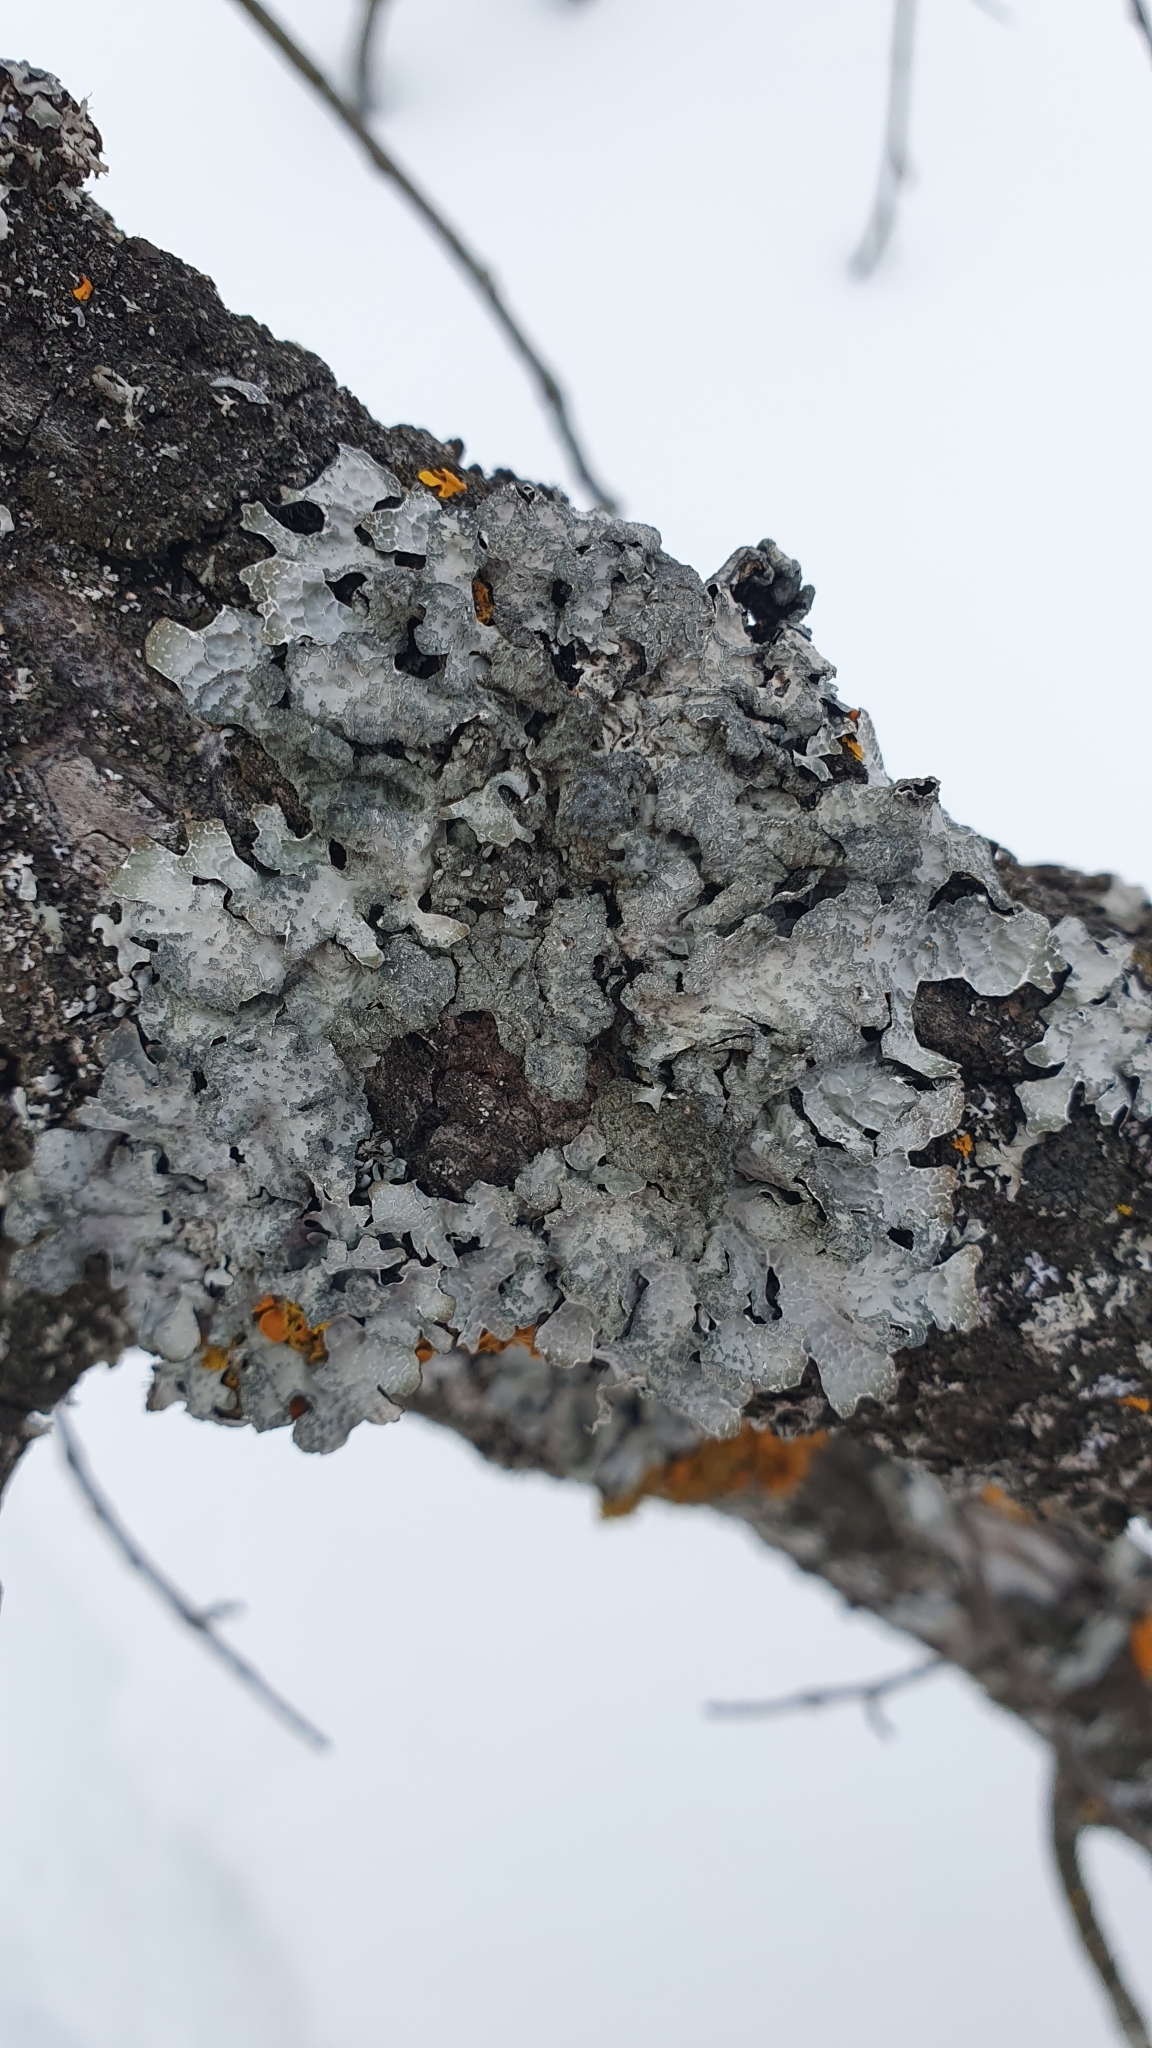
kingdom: Fungi
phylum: Ascomycota
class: Lecanoromycetes
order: Lecanorales
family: Parmeliaceae
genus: Parmelia
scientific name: Parmelia sulcata
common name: Netted shield lichen
